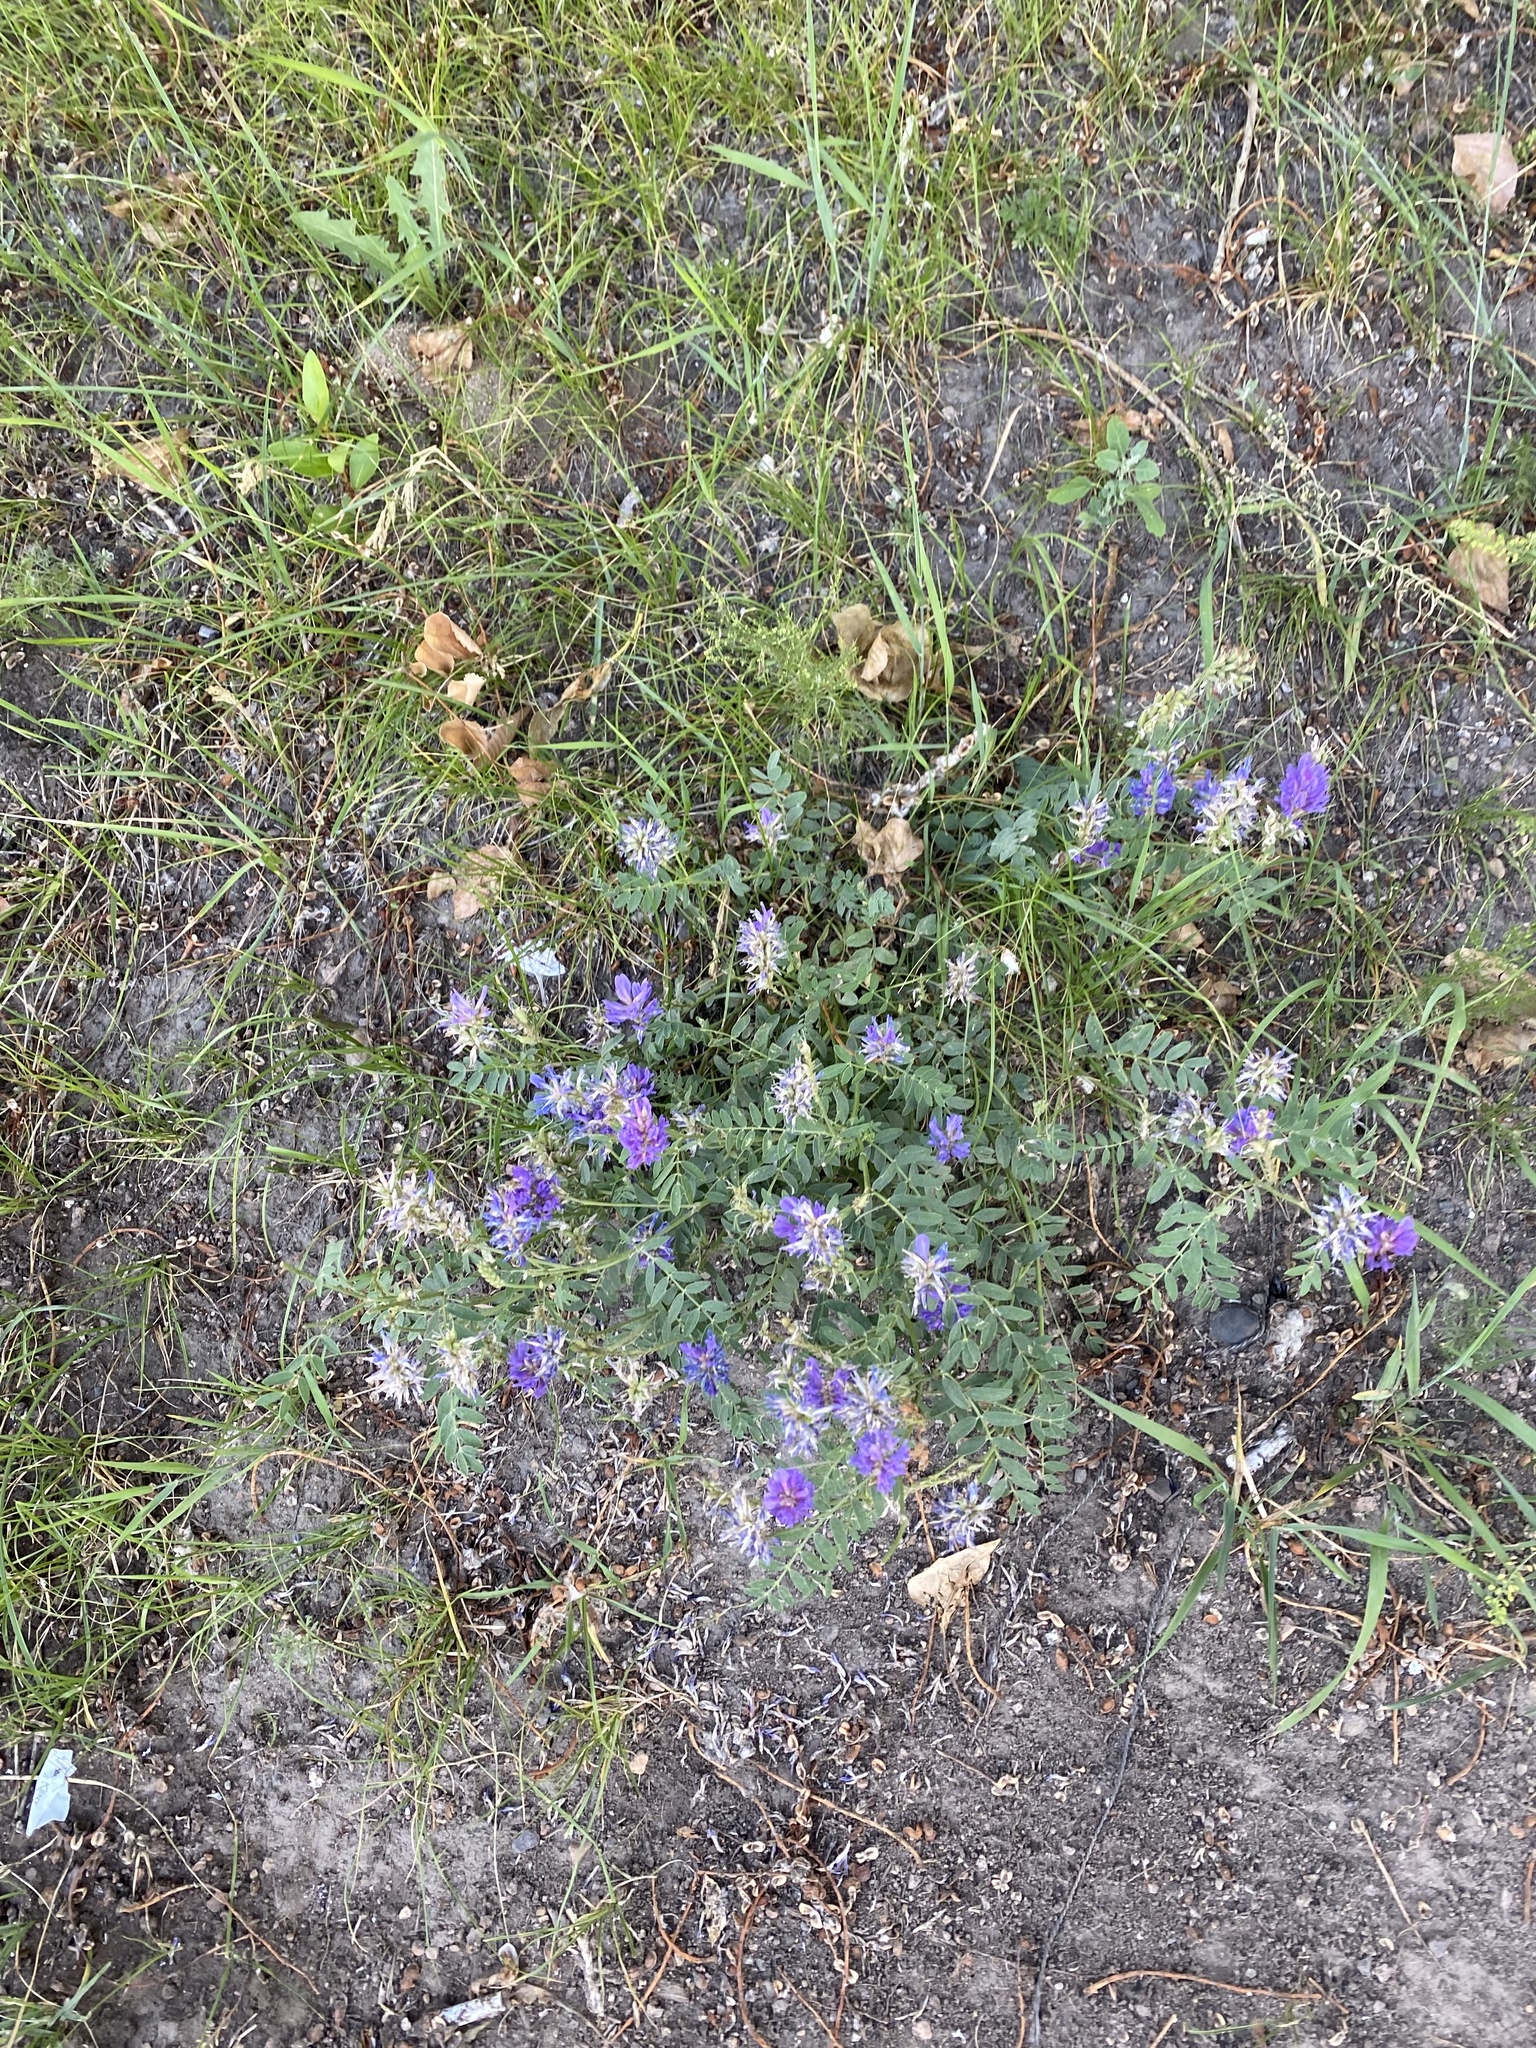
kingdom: Plantae
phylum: Tracheophyta
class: Magnoliopsida
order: Fabales
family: Fabaceae
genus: Astragalus
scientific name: Astragalus laxmannii
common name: Laxmann's milk-vetch
